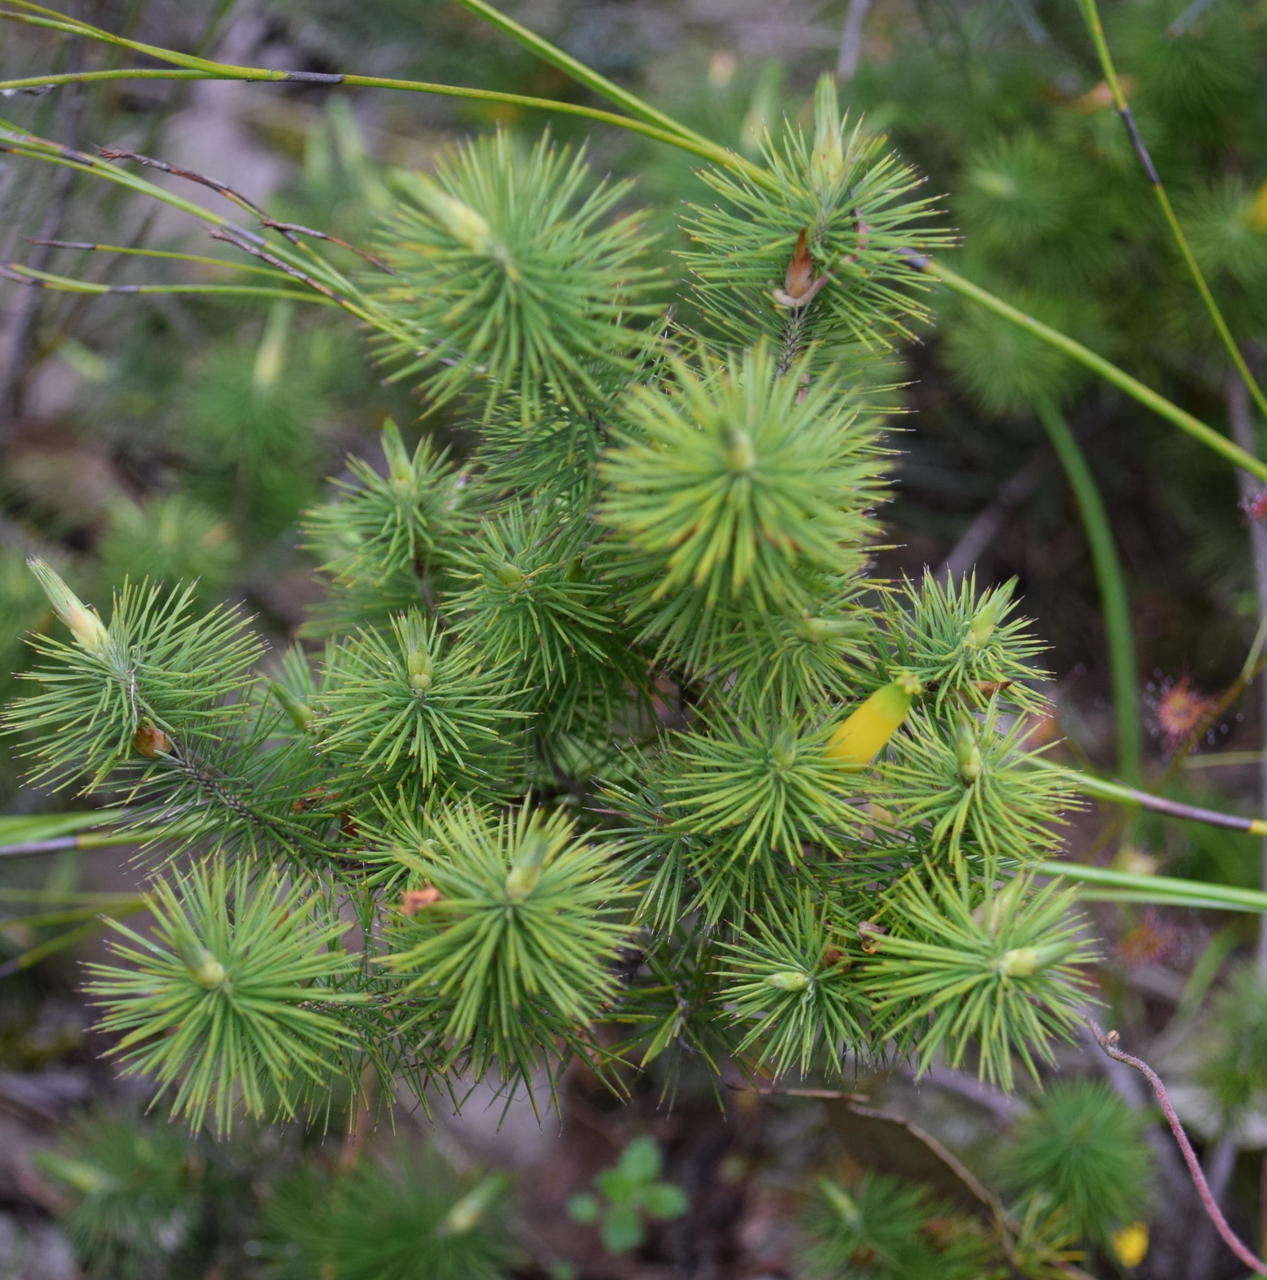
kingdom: Plantae
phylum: Tracheophyta
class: Magnoliopsida
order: Ericales
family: Ericaceae
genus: Stenanthera
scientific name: Stenanthera pinifolia
